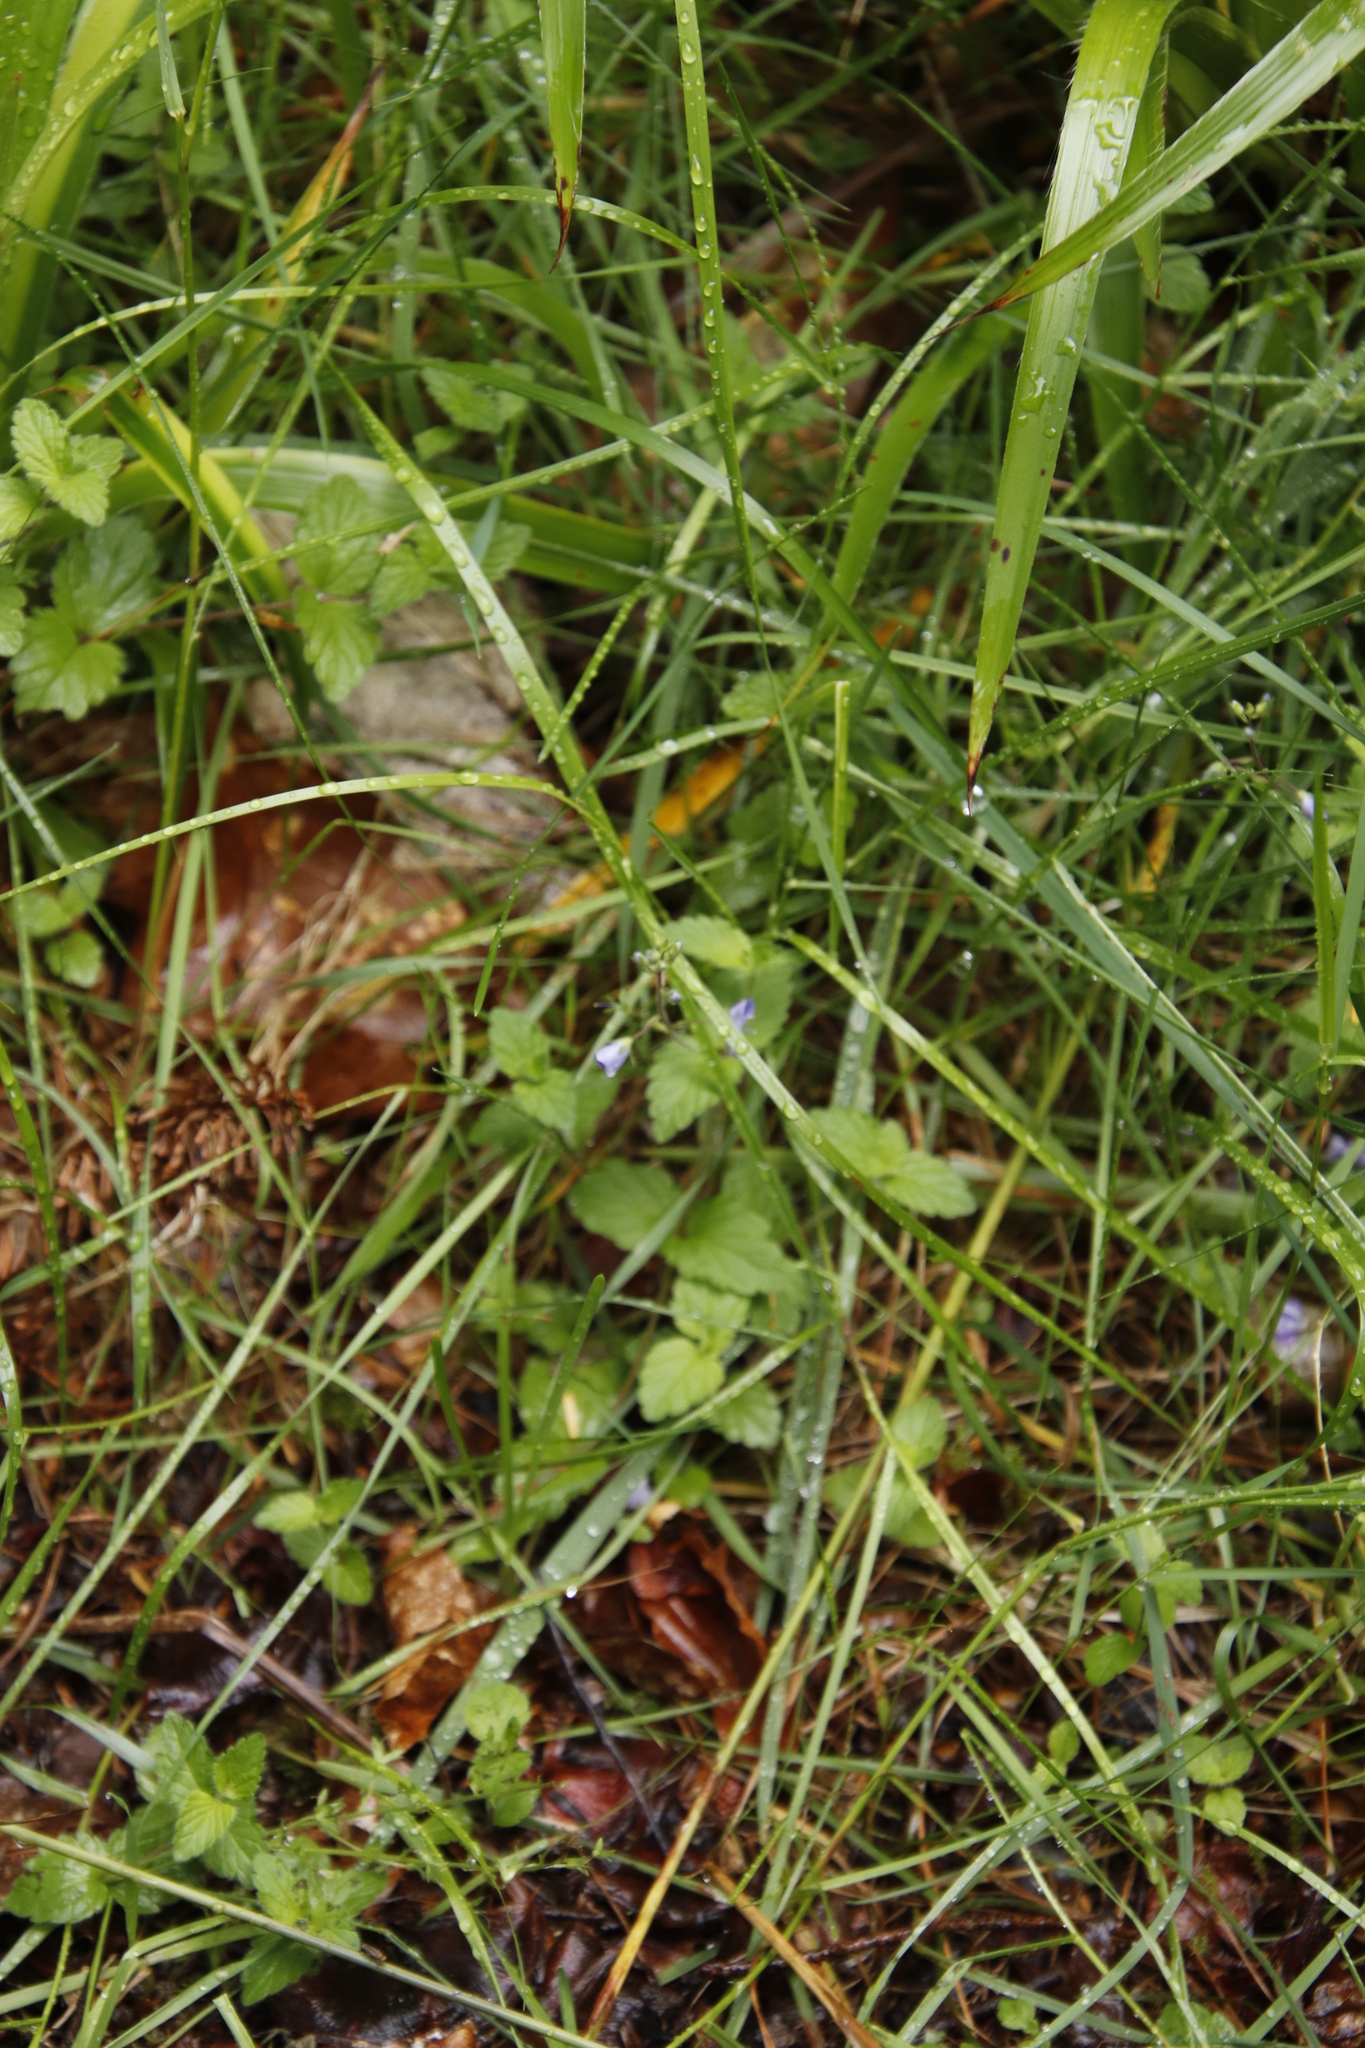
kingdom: Plantae
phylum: Tracheophyta
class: Magnoliopsida
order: Lamiales
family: Plantaginaceae
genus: Veronica
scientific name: Veronica chamaedrys
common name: Germander speedwell
